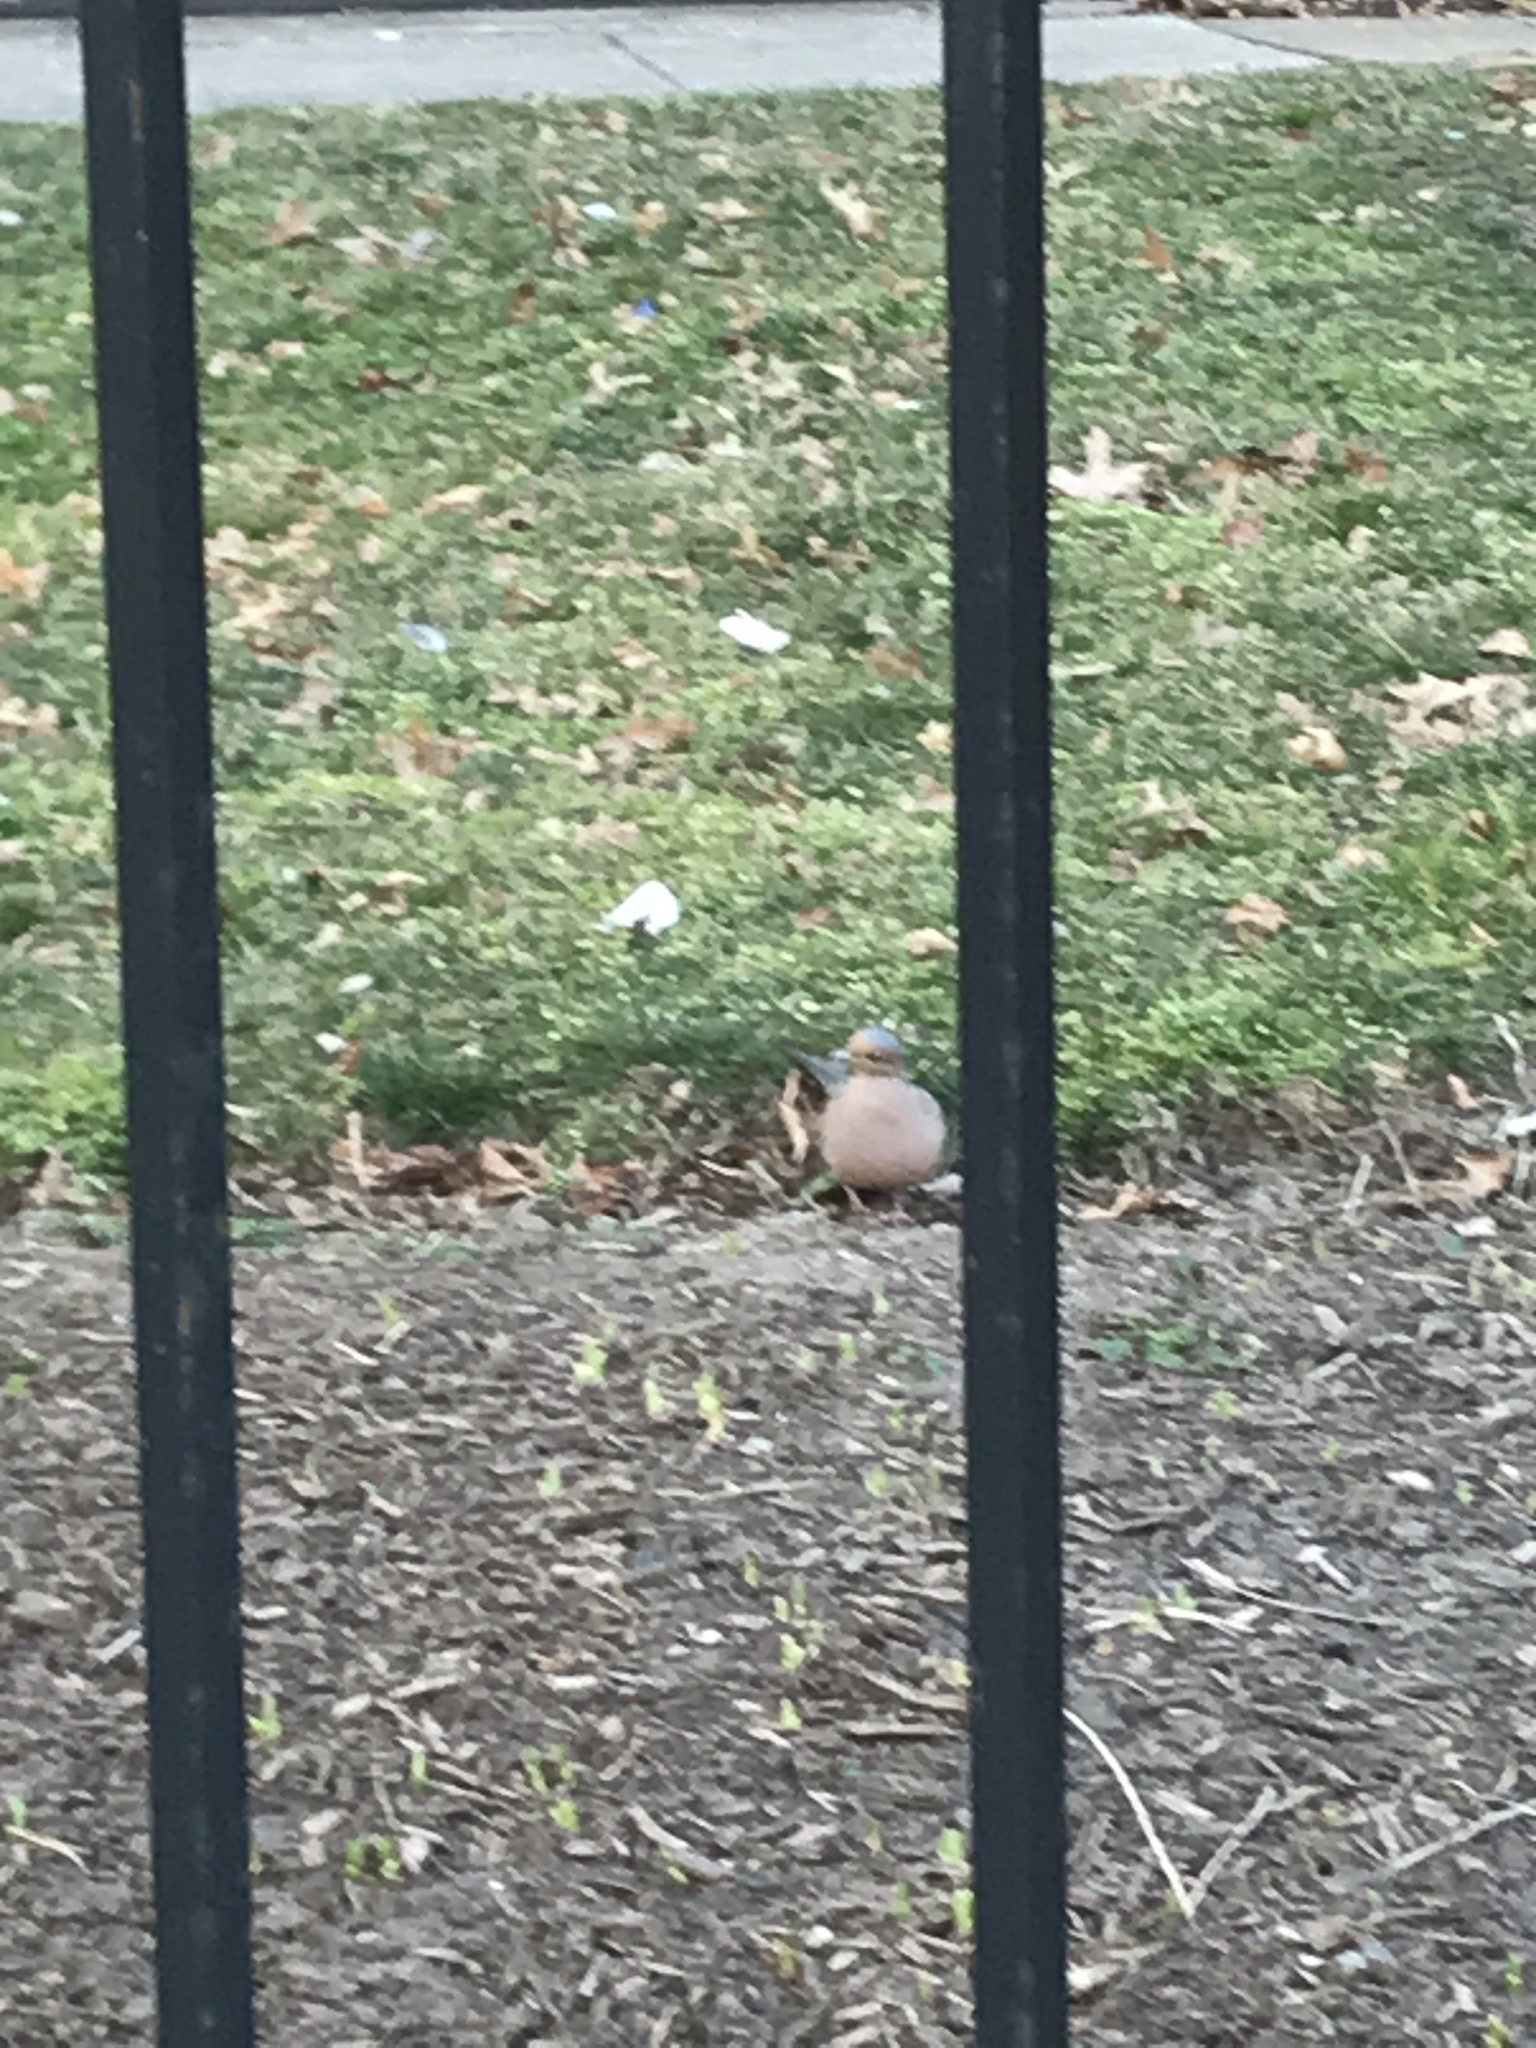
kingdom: Animalia
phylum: Chordata
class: Aves
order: Columbiformes
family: Columbidae
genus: Zenaida
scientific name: Zenaida macroura
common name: Mourning dove
